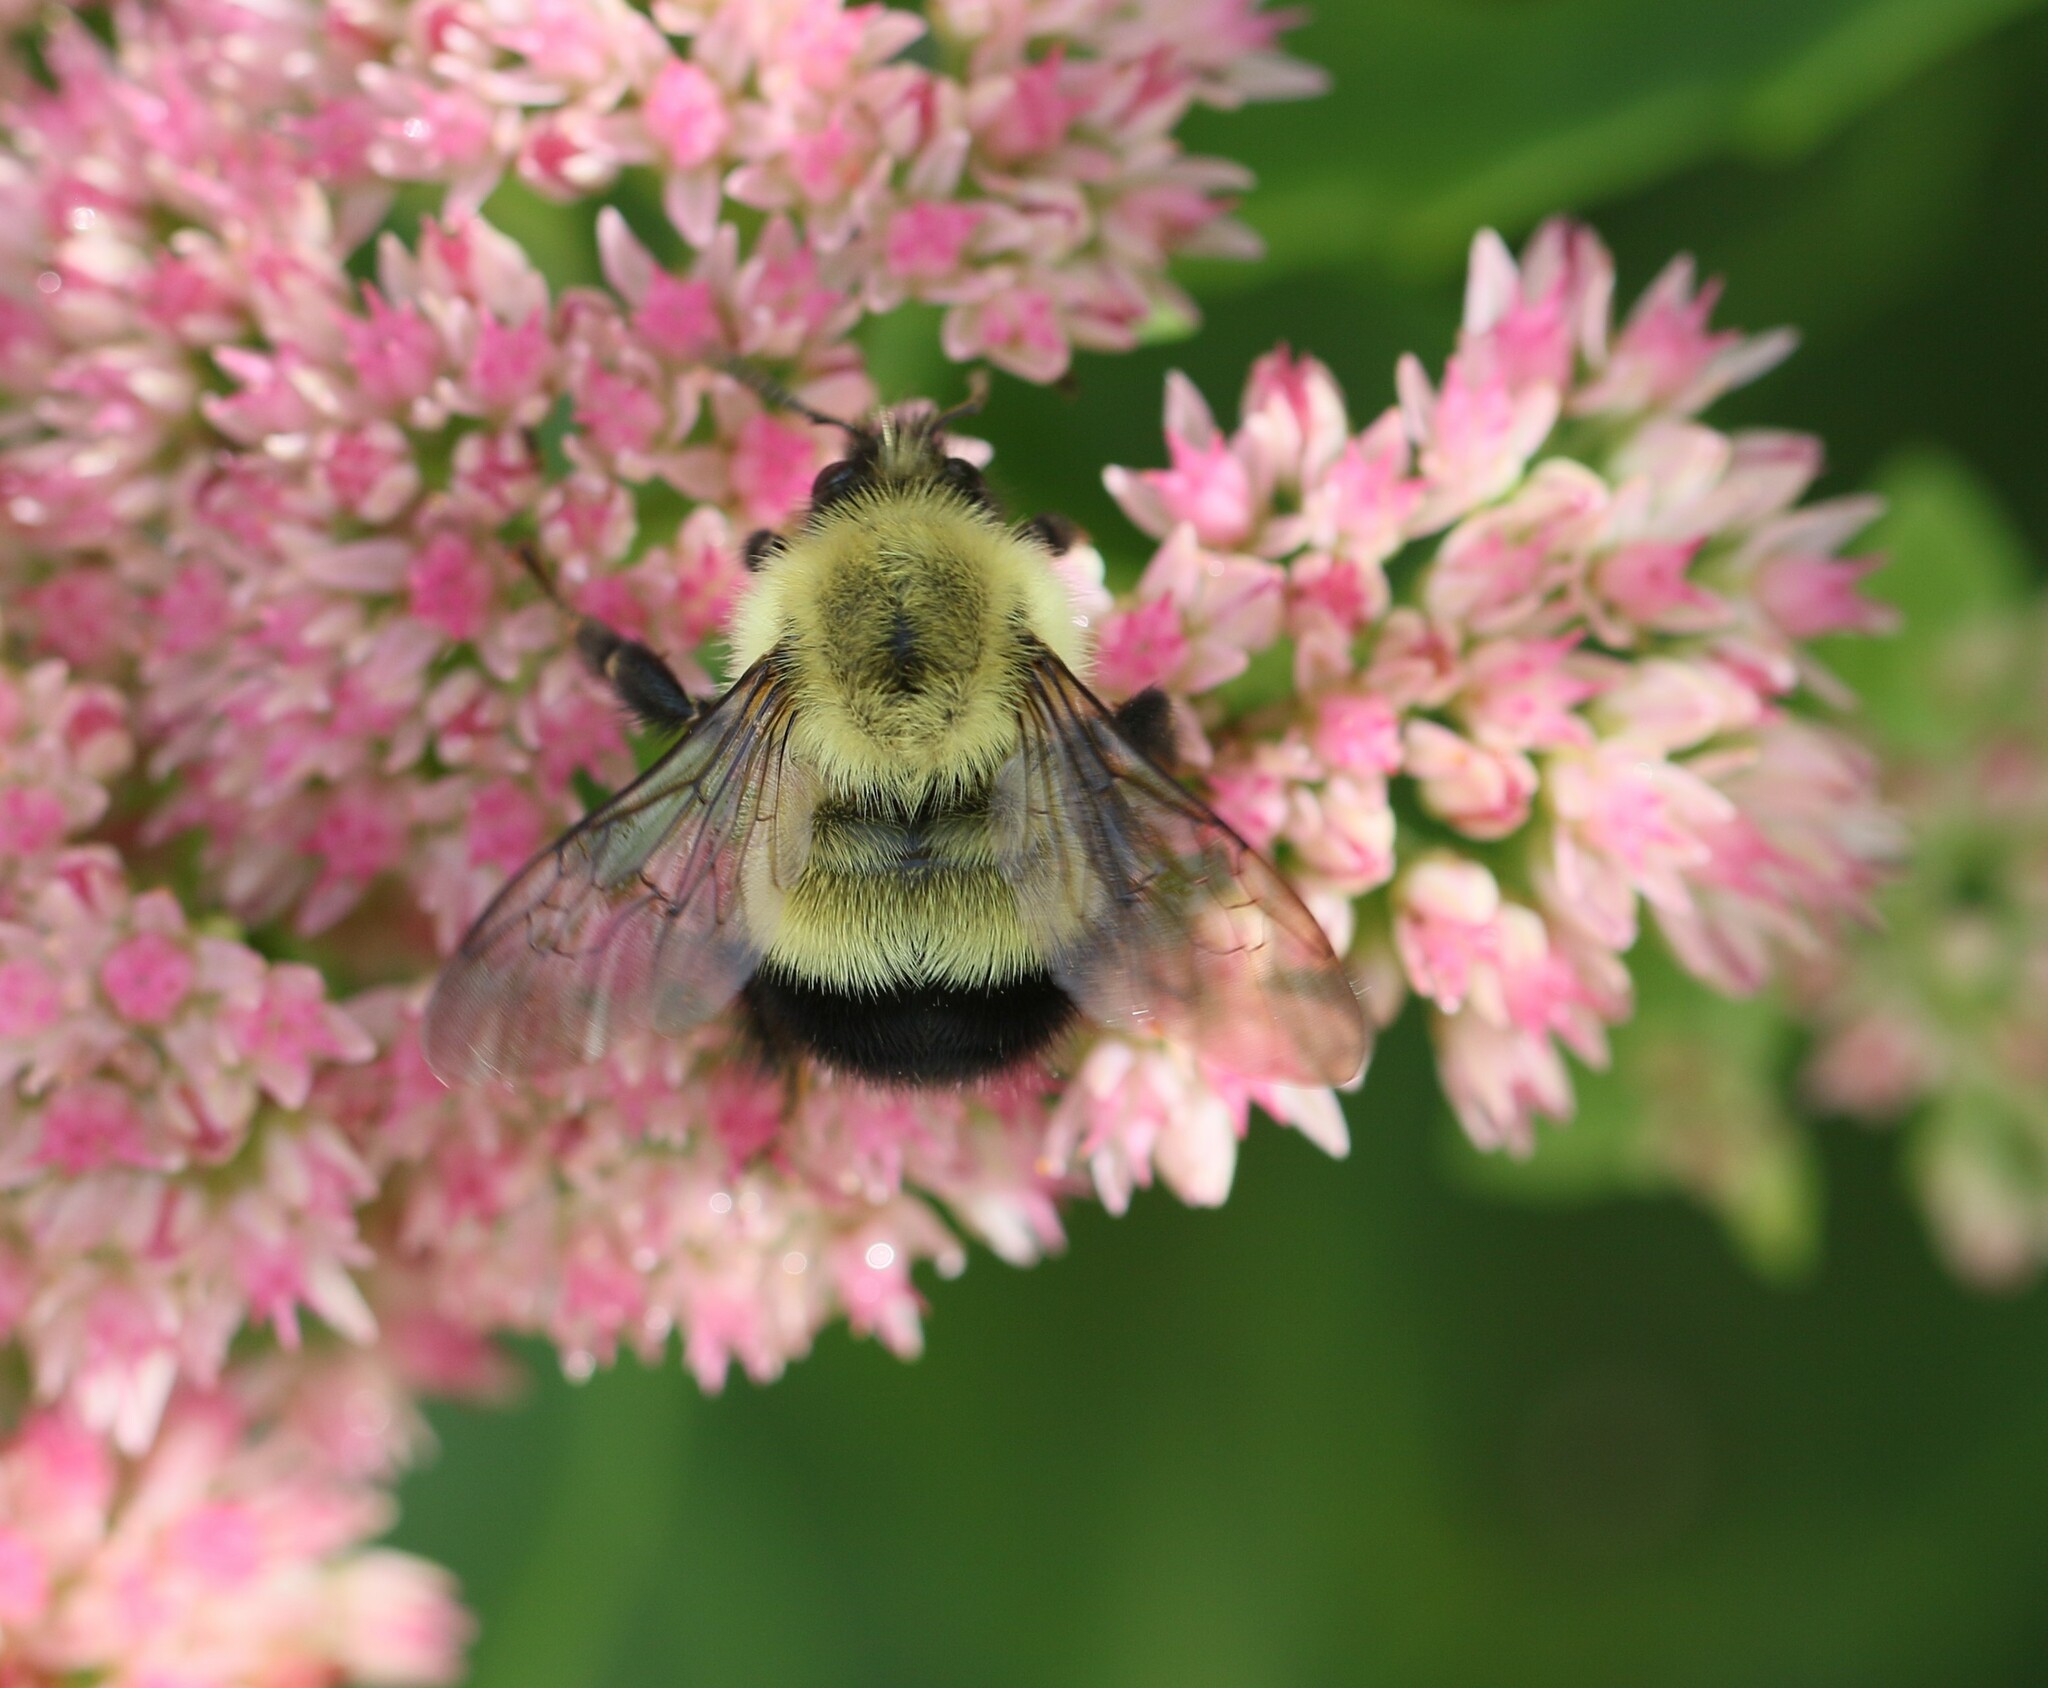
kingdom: Animalia
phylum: Arthropoda
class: Insecta
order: Hymenoptera
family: Apidae
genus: Pyrobombus
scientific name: Pyrobombus
